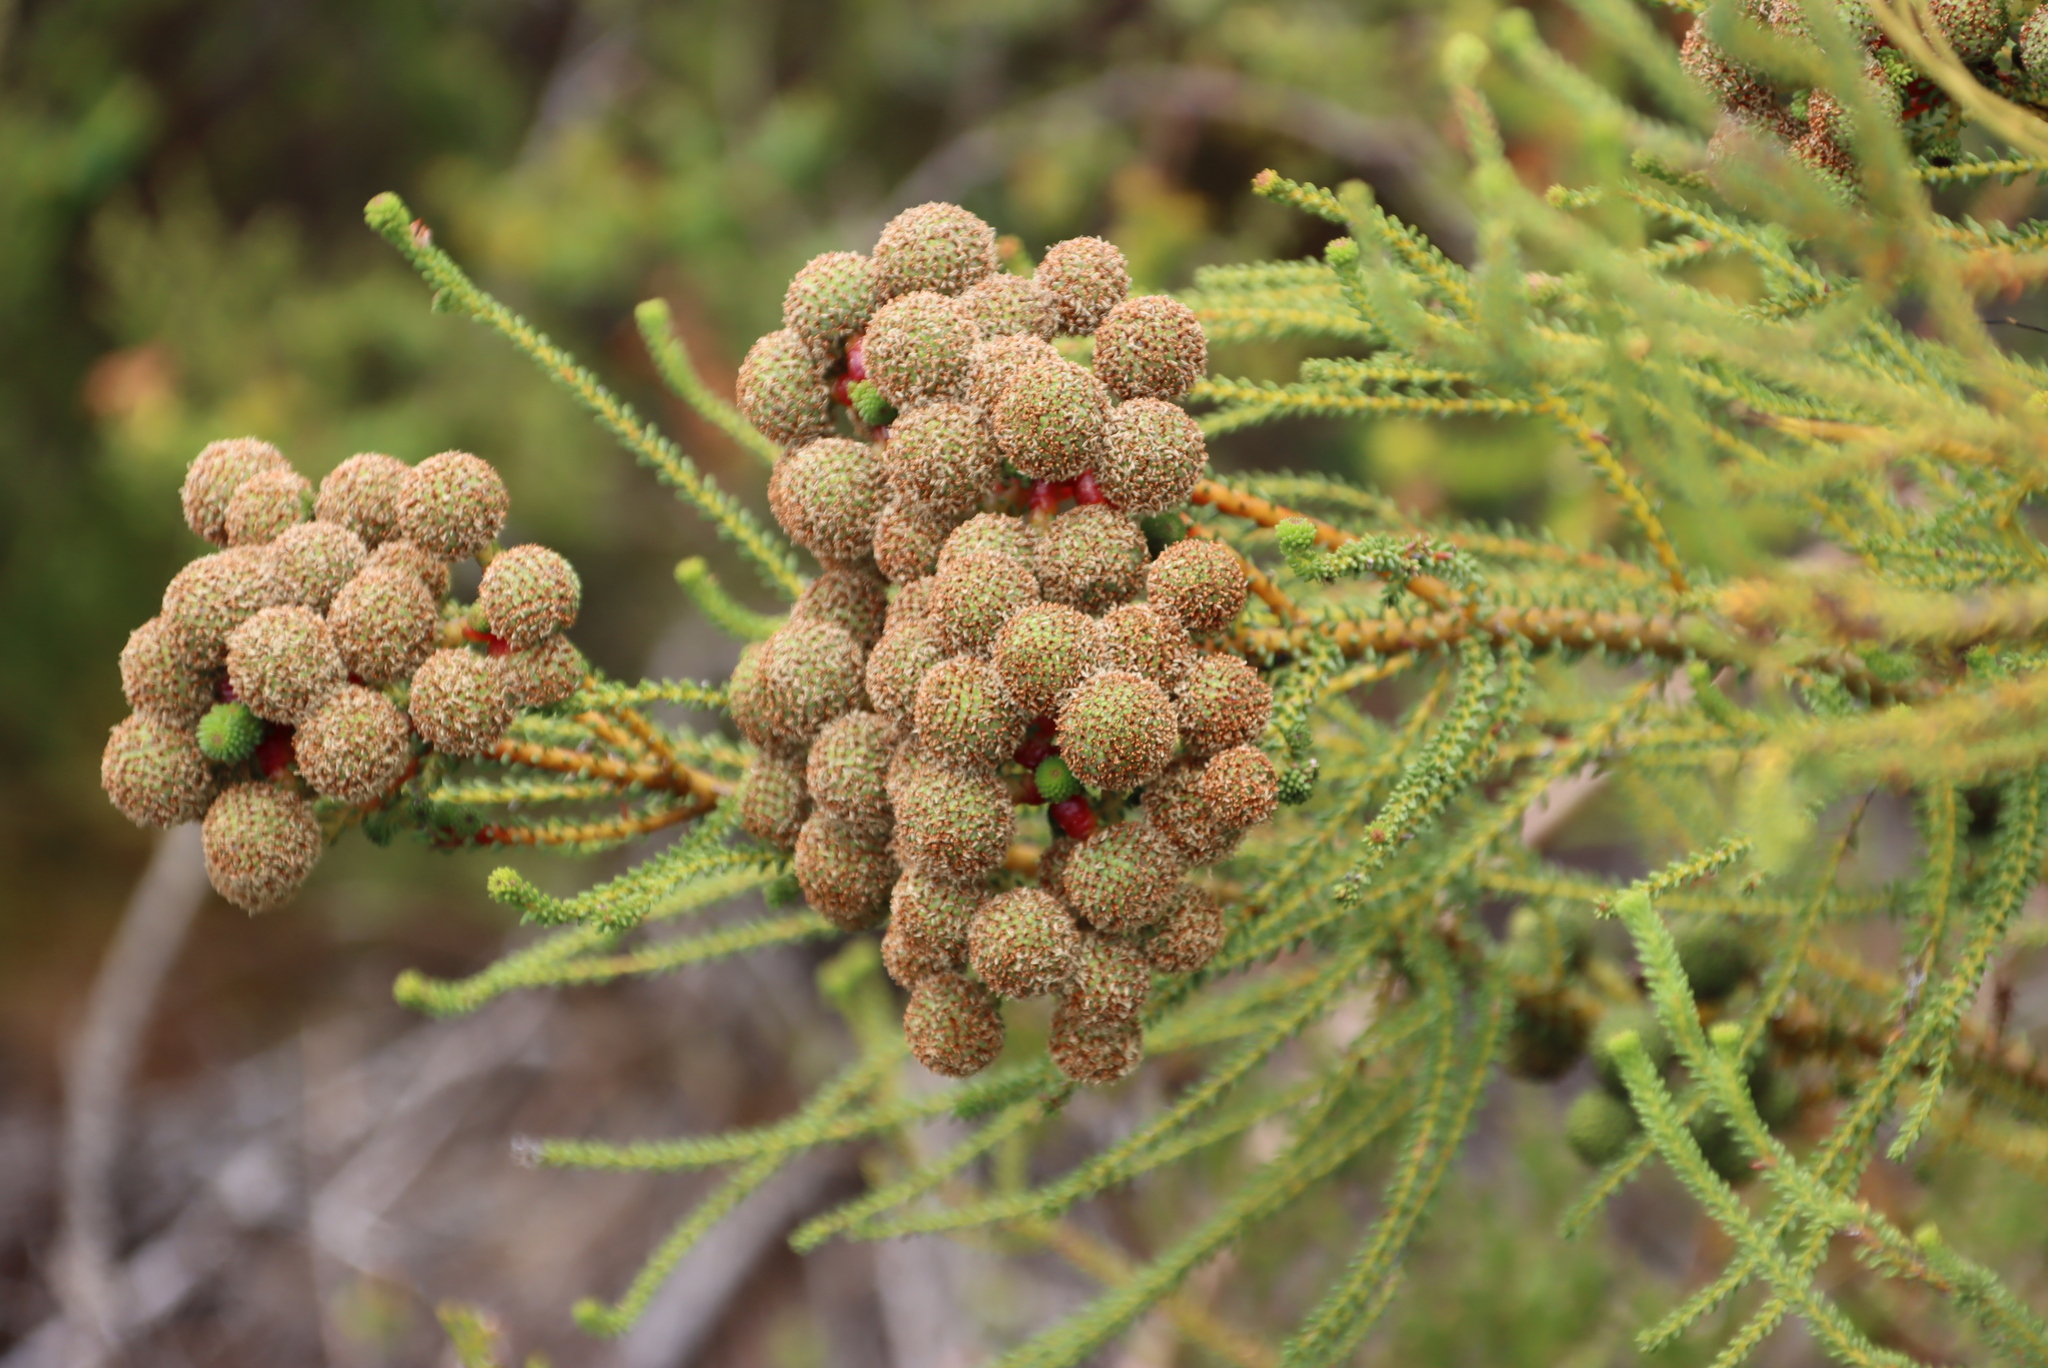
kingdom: Plantae
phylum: Tracheophyta
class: Magnoliopsida
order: Bruniales
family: Bruniaceae
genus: Berzelia
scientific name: Berzelia abrotanoides
